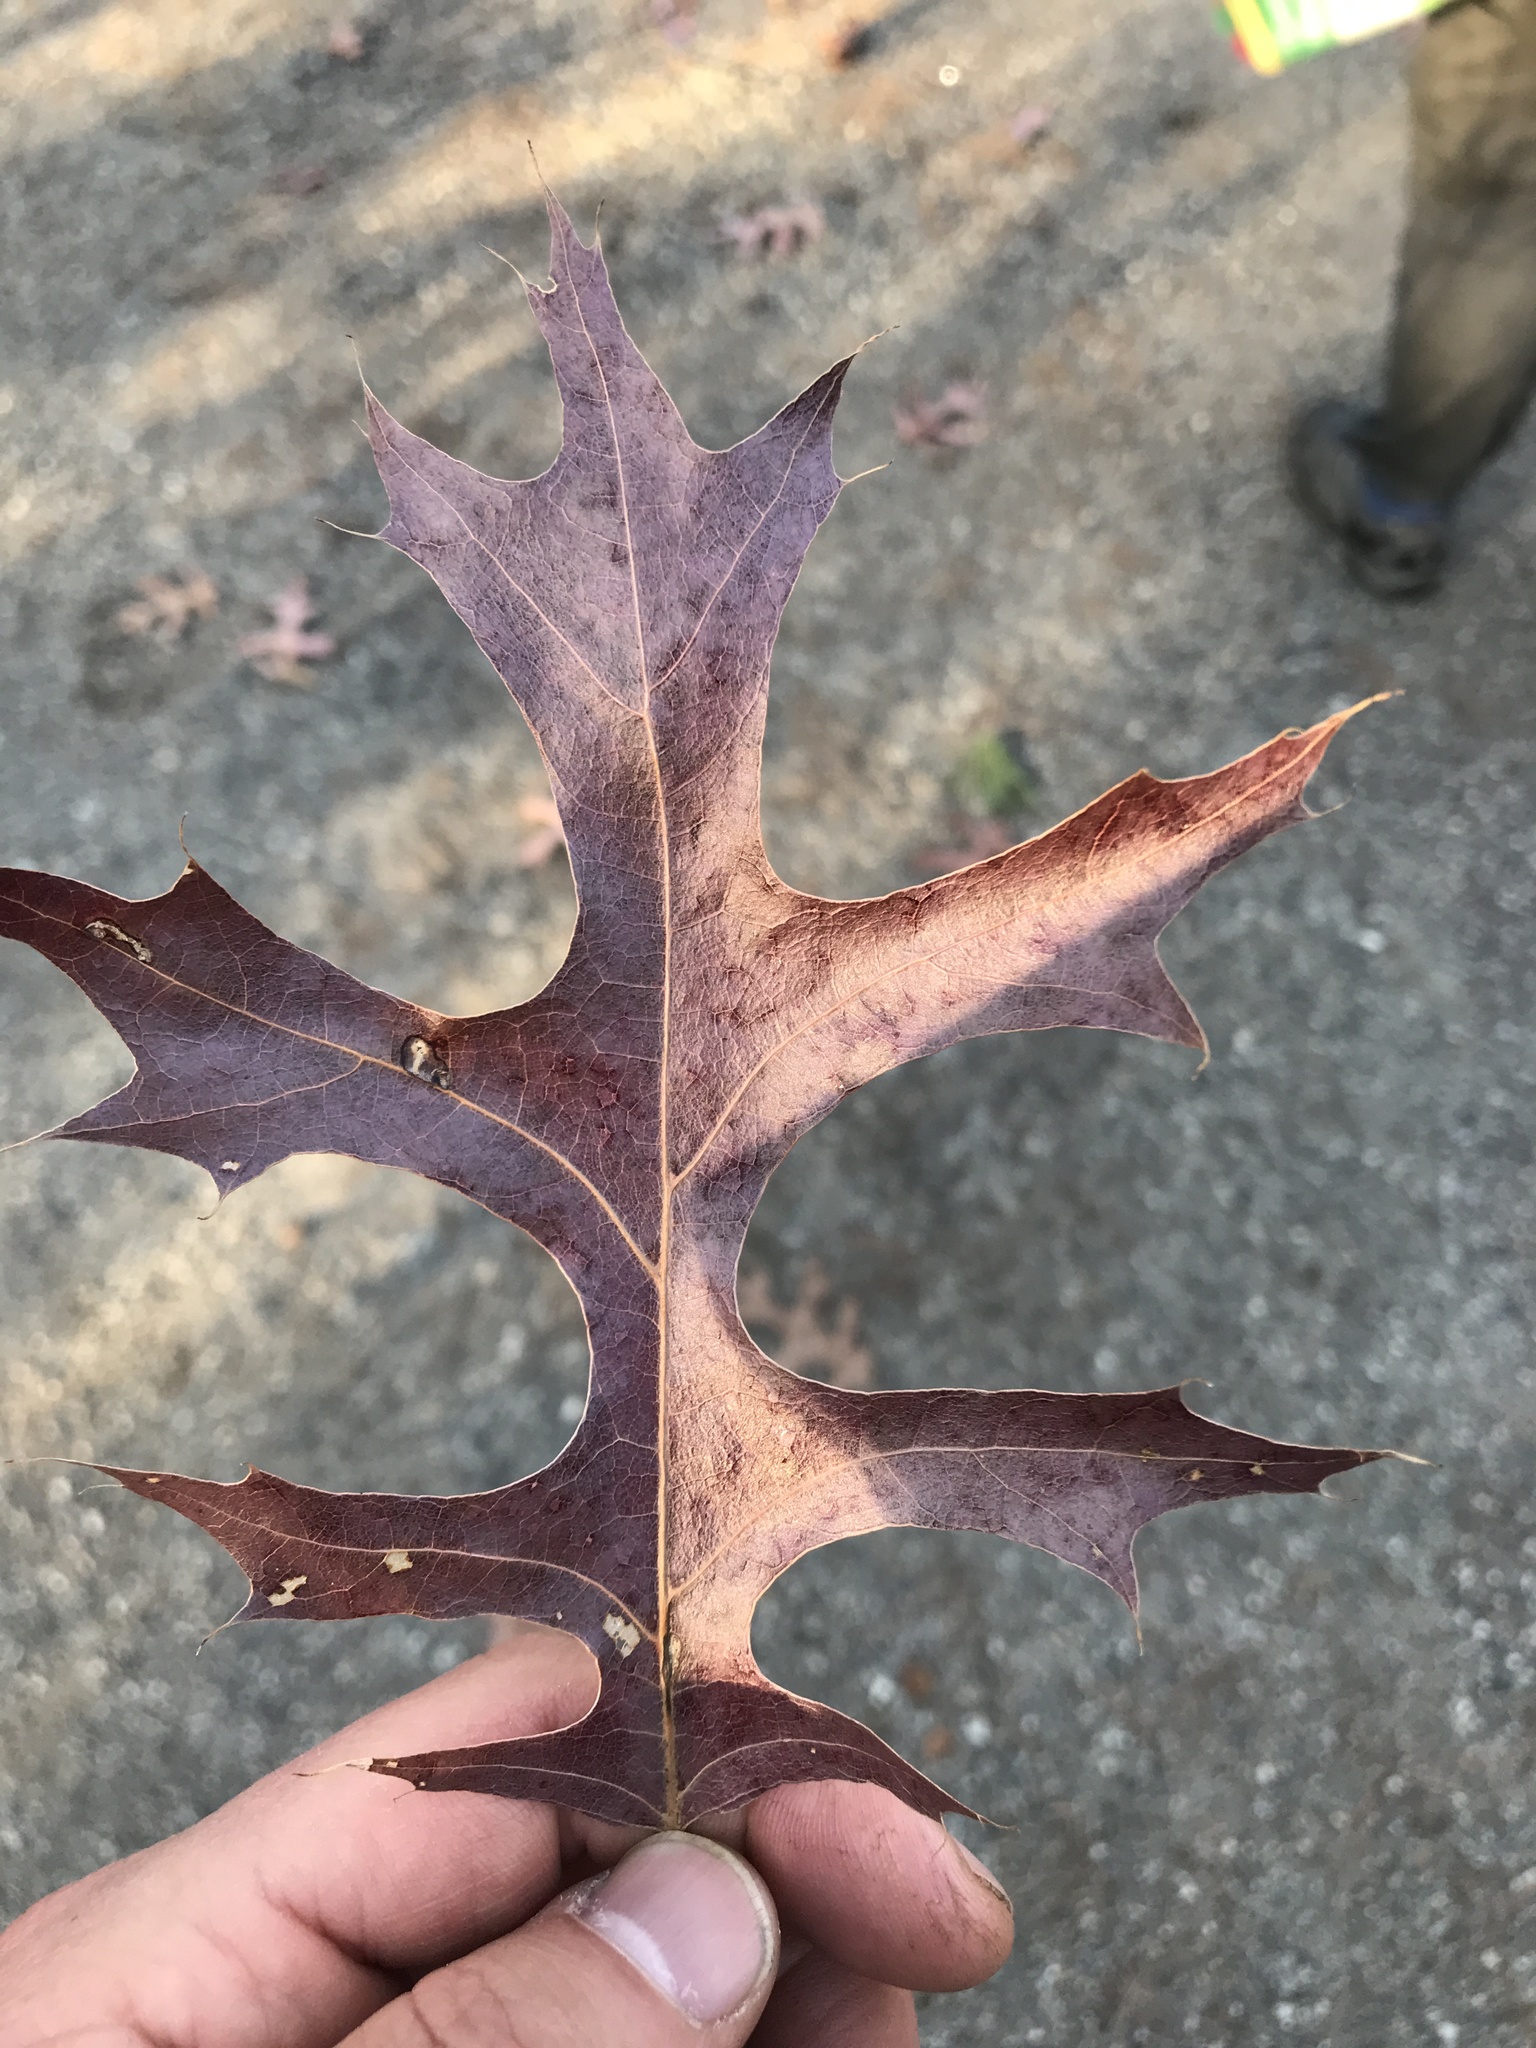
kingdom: Plantae
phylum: Tracheophyta
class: Magnoliopsida
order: Fagales
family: Fagaceae
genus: Quercus
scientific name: Quercus coccinea
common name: Scarlet oak
